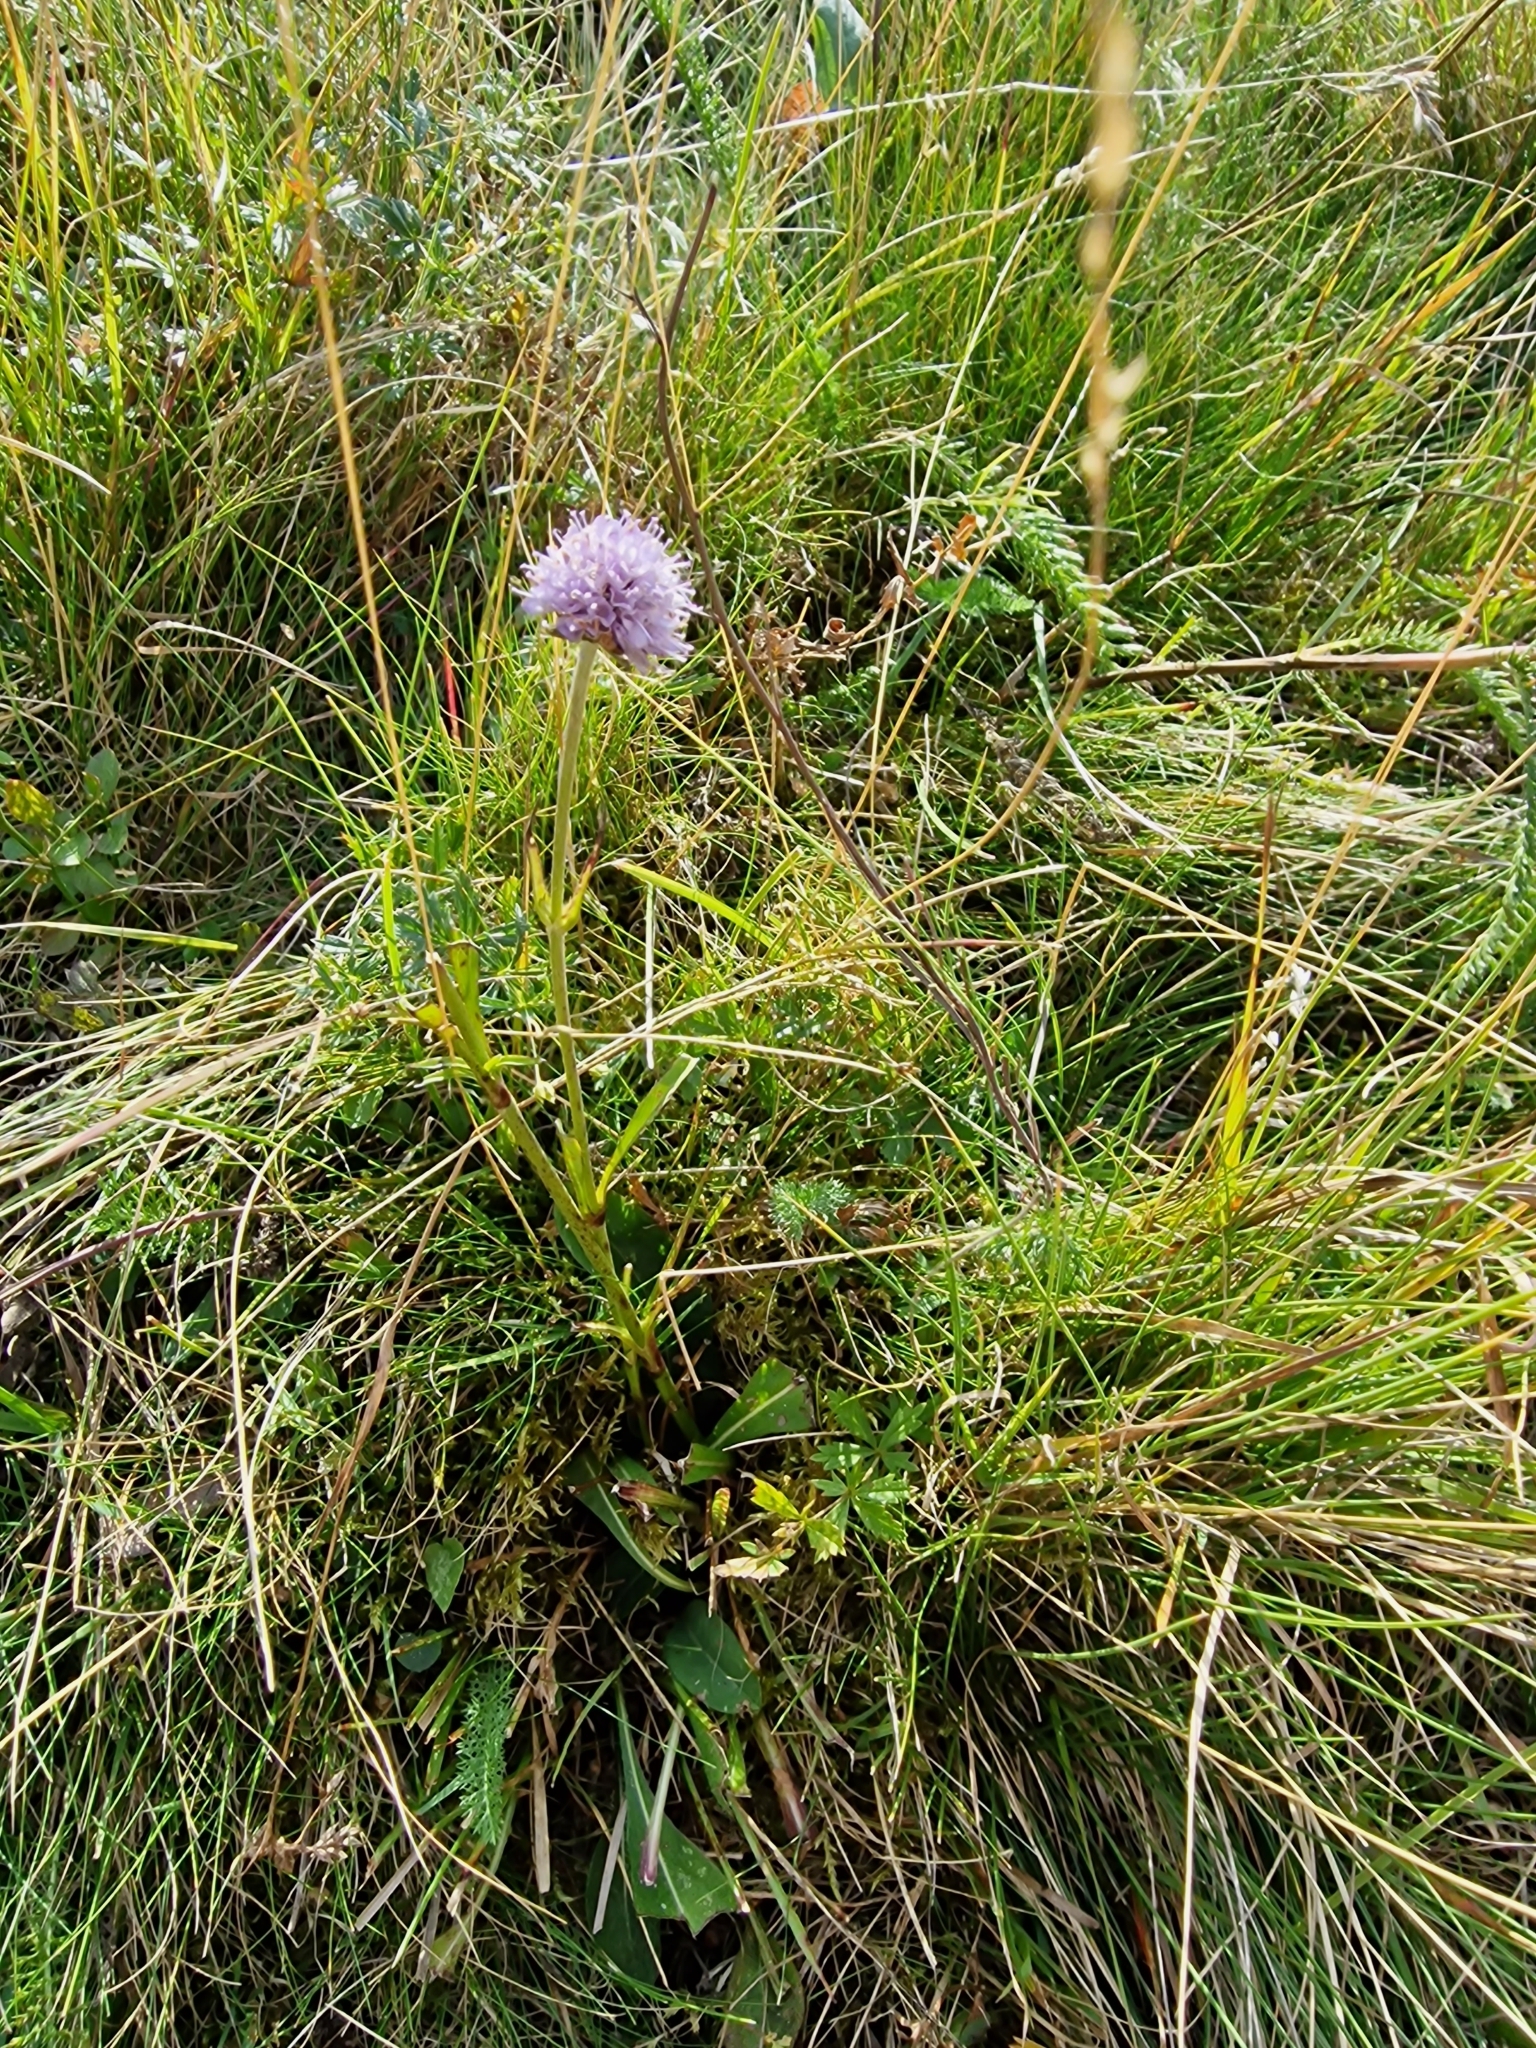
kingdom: Plantae
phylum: Tracheophyta
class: Magnoliopsida
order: Dipsacales
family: Caprifoliaceae
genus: Succisa
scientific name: Succisa pratensis
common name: Devil's-bit
